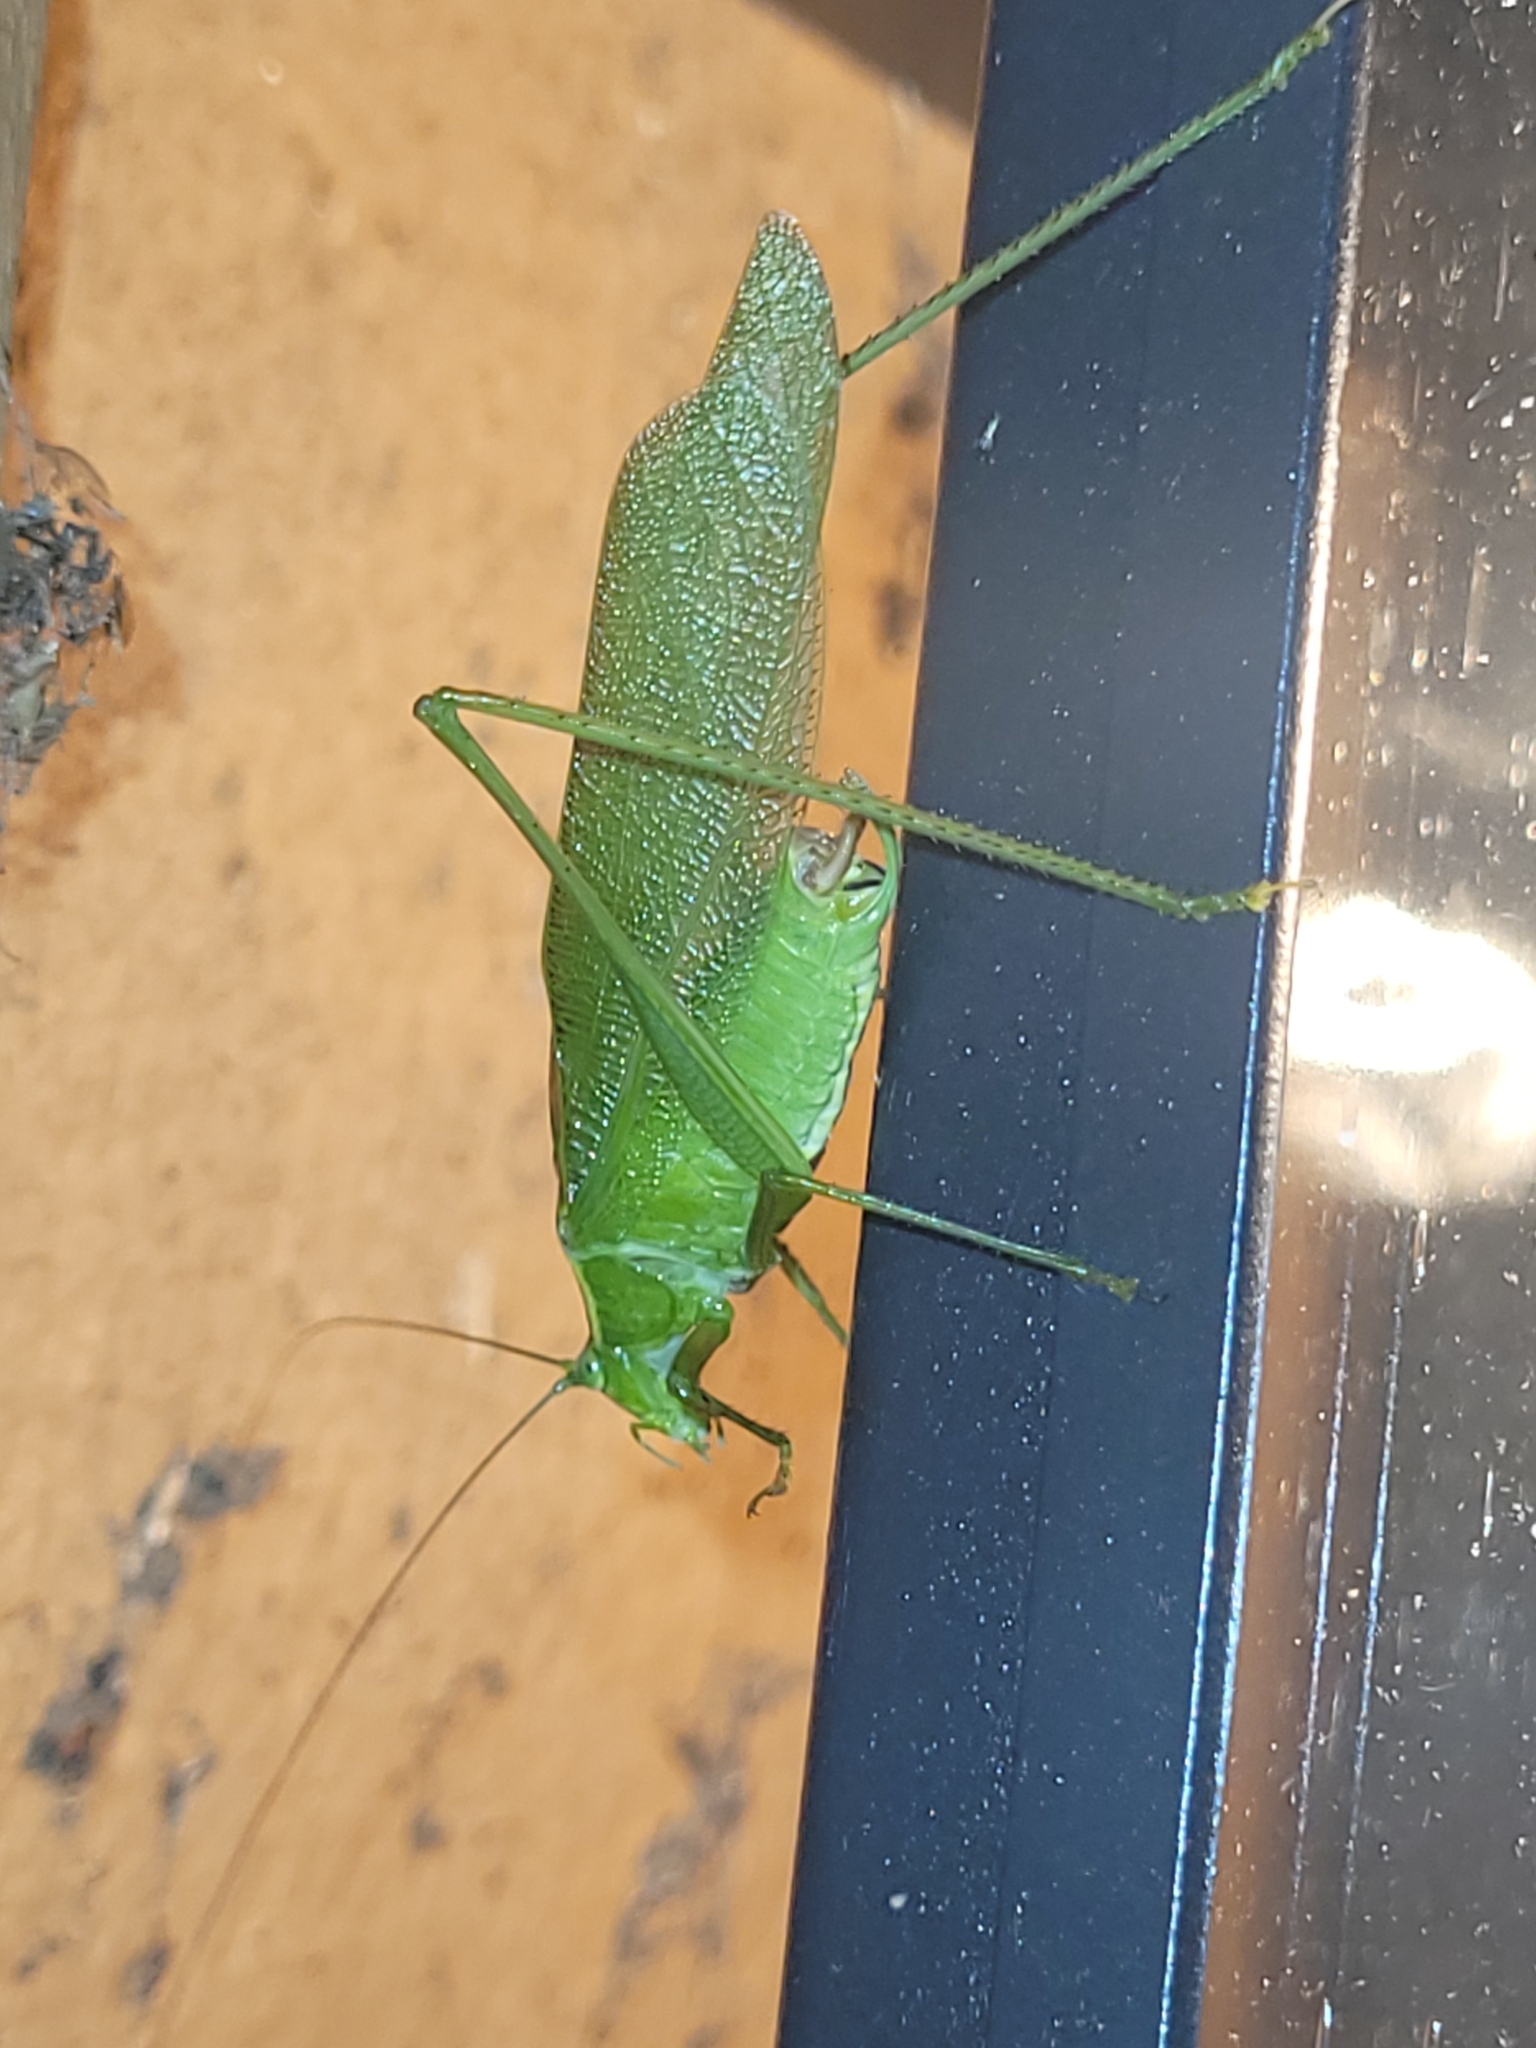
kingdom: Animalia
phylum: Arthropoda
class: Insecta
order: Orthoptera
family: Tettigoniidae
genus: Scudderia
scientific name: Scudderia septentrionalis
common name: Northern bush-katydid
